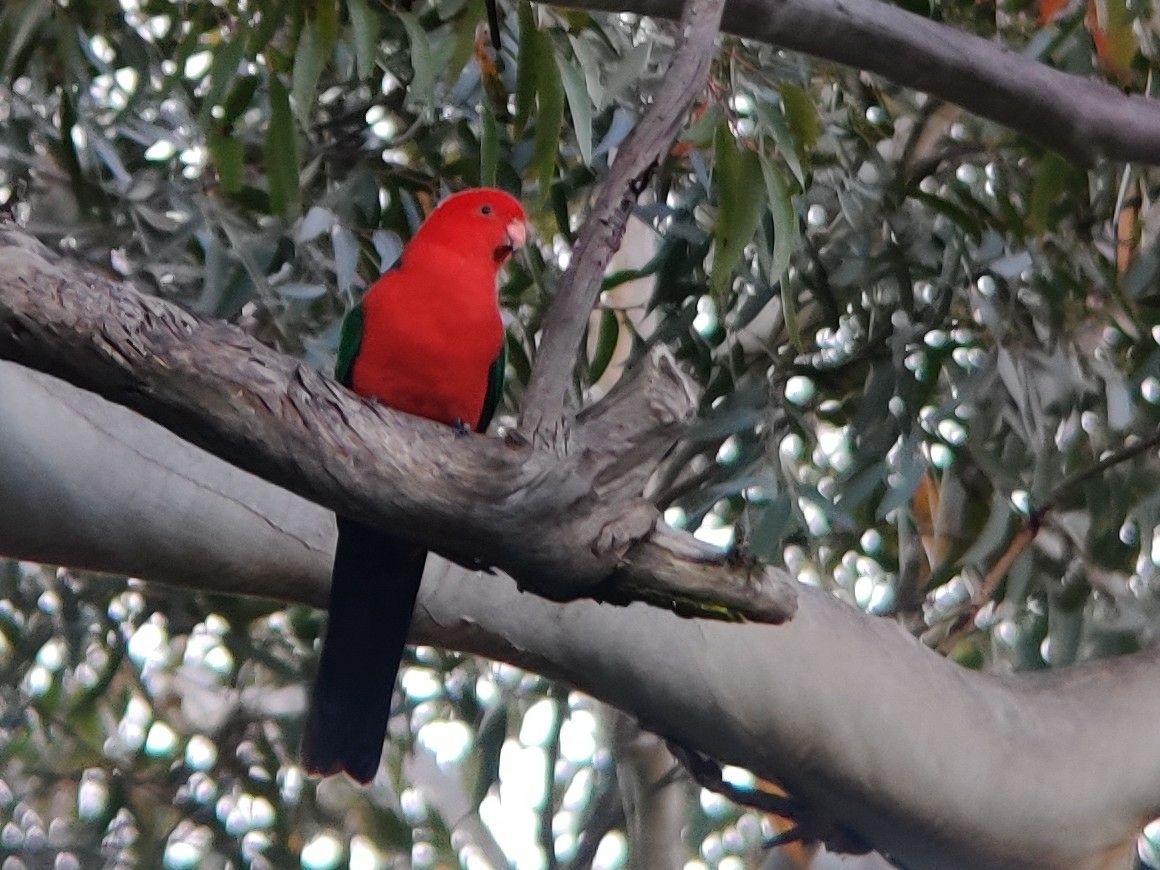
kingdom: Animalia
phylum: Chordata
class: Aves
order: Psittaciformes
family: Psittacidae
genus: Alisterus
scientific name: Alisterus scapularis
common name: Australian king parrot
